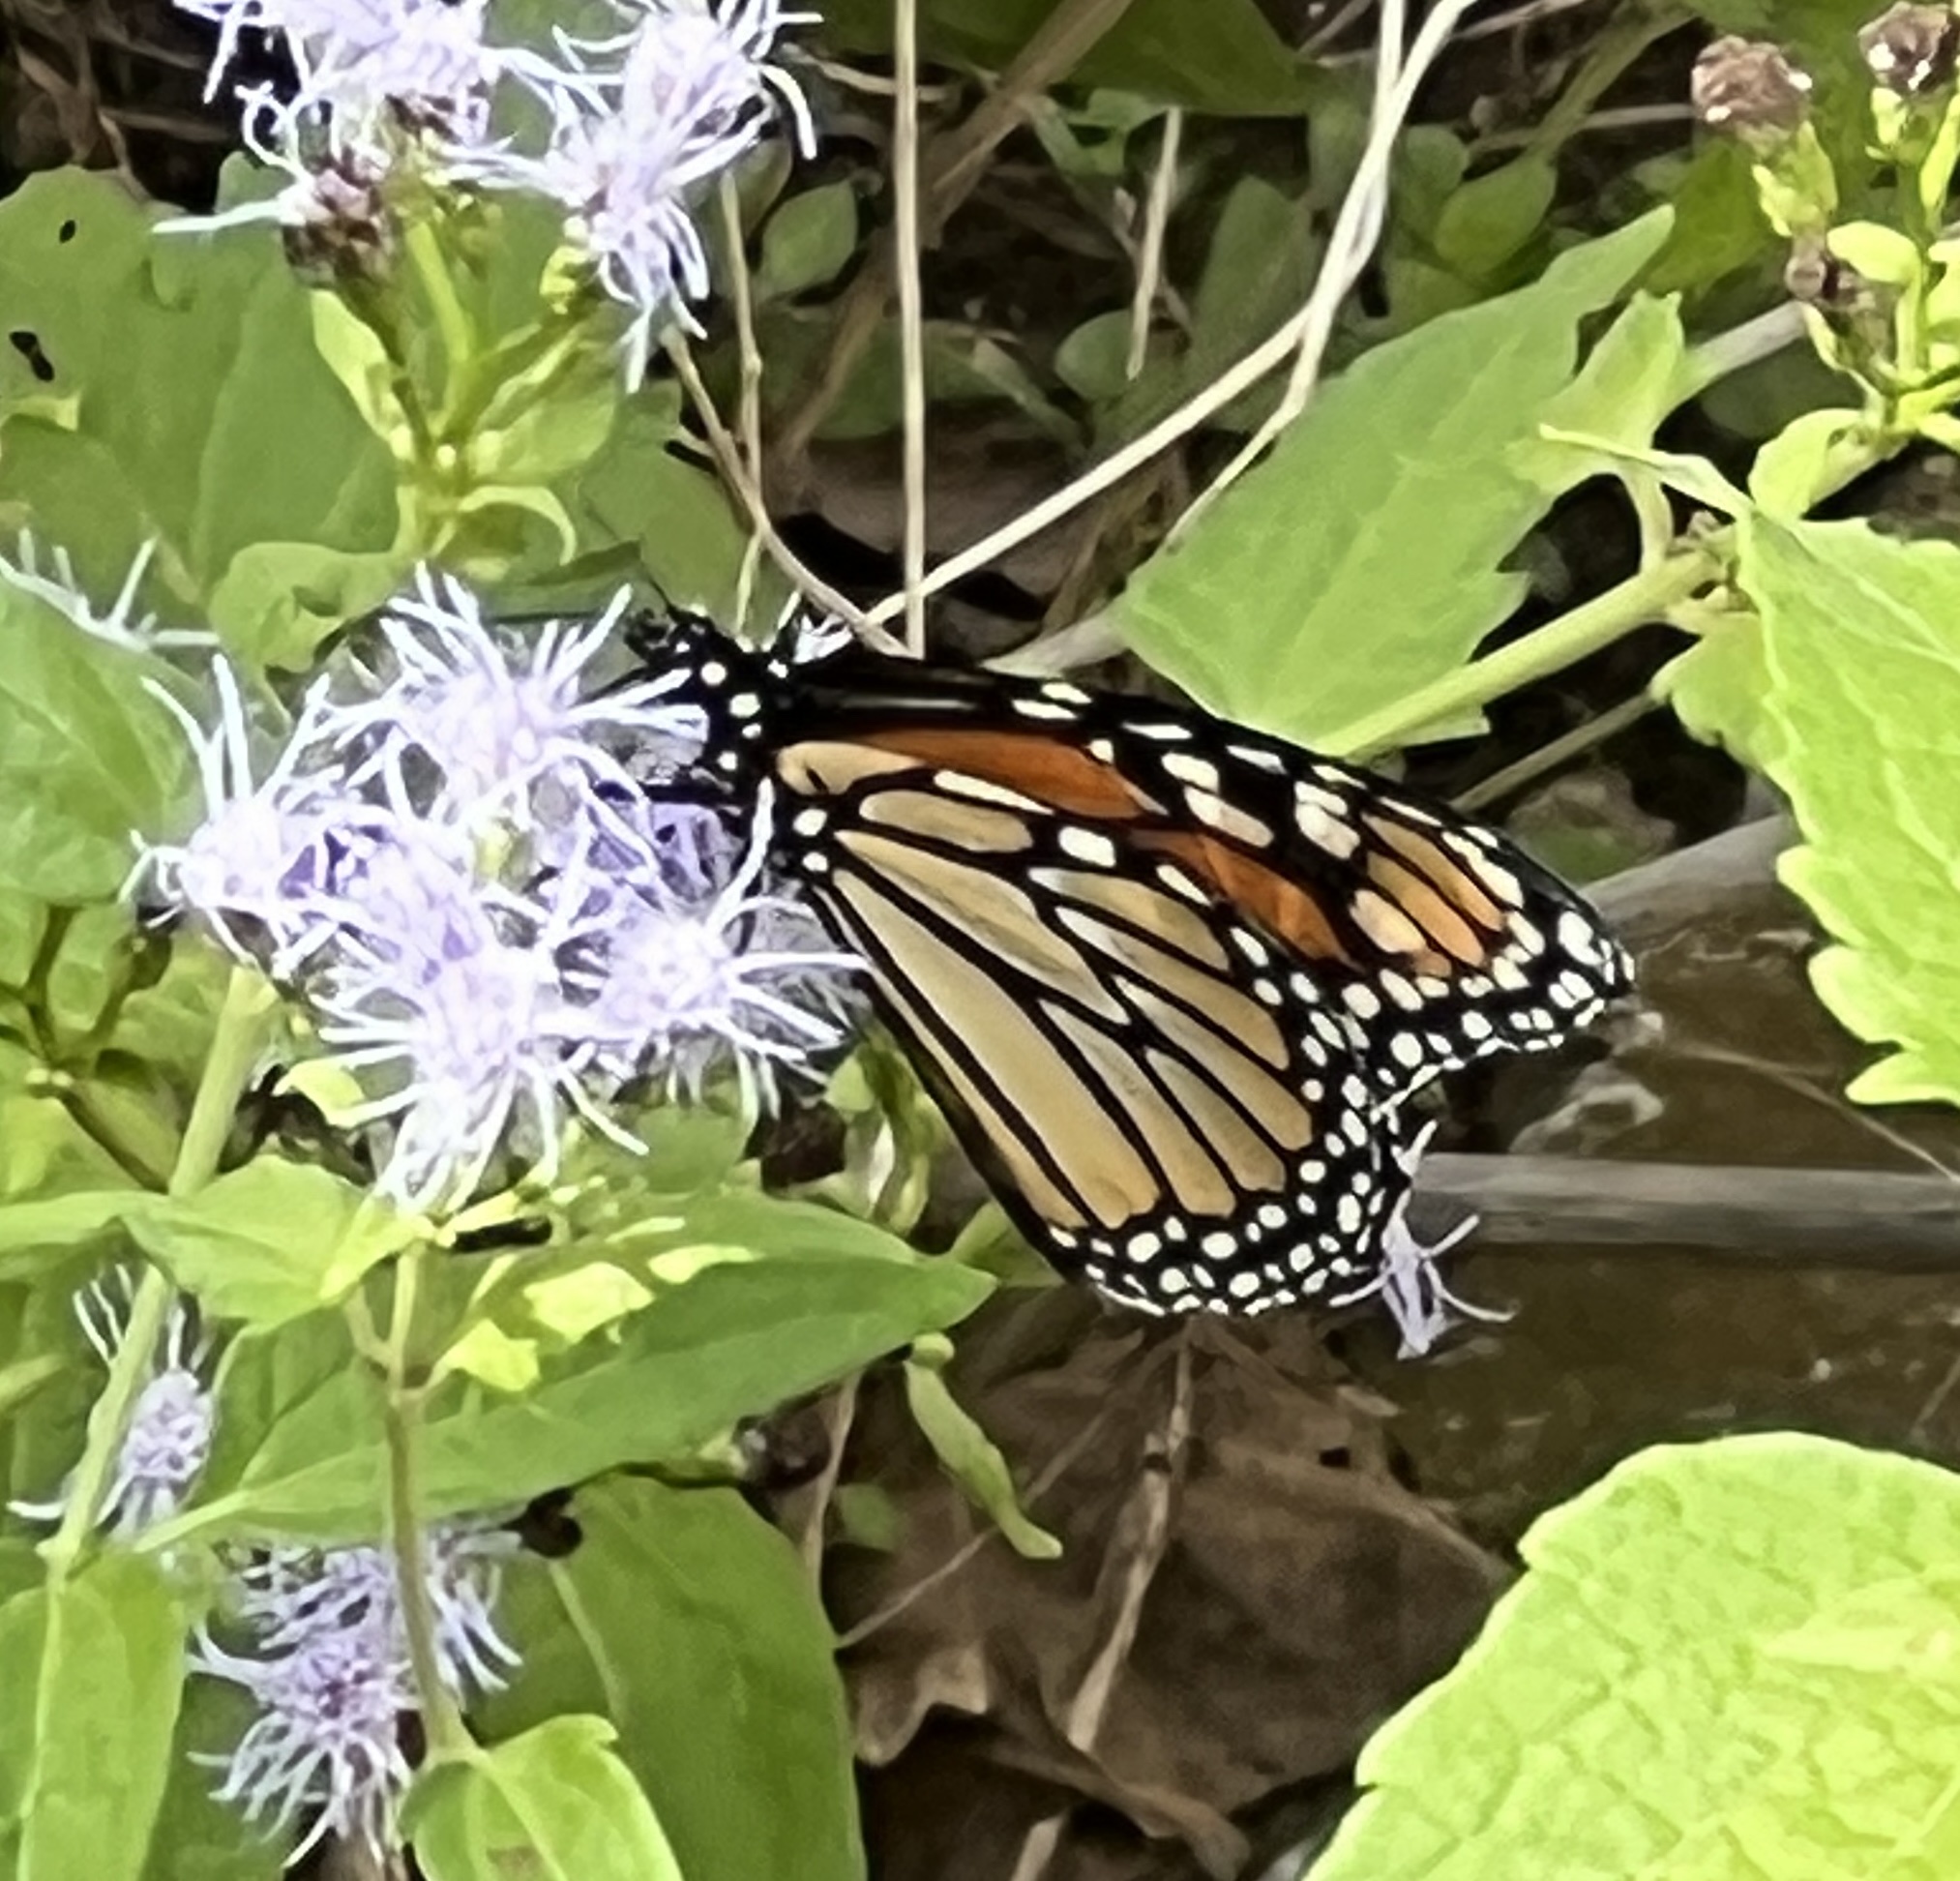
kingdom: Animalia
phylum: Arthropoda
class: Insecta
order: Lepidoptera
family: Nymphalidae
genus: Danaus
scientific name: Danaus plexippus
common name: Monarch
